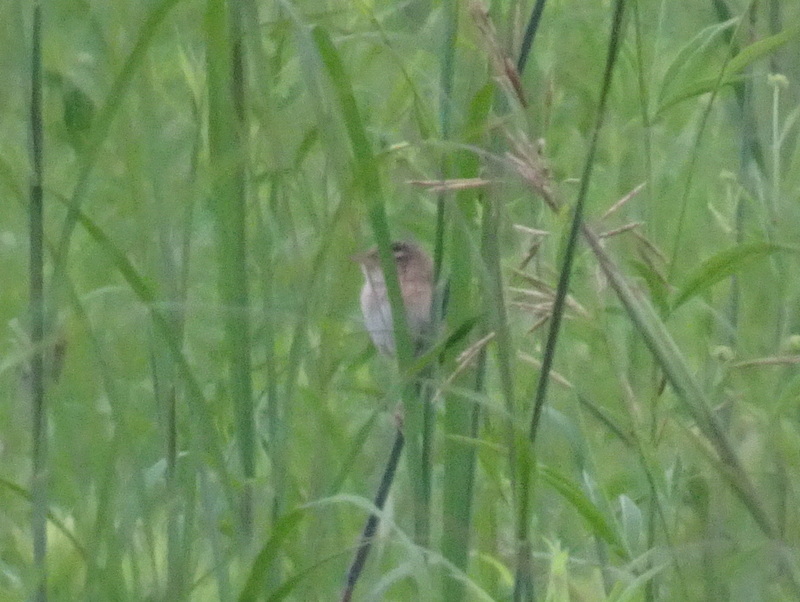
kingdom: Animalia
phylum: Chordata
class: Aves
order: Passeriformes
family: Troglodytidae
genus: Cistothorus
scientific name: Cistothorus platensis
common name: Sedge wren
